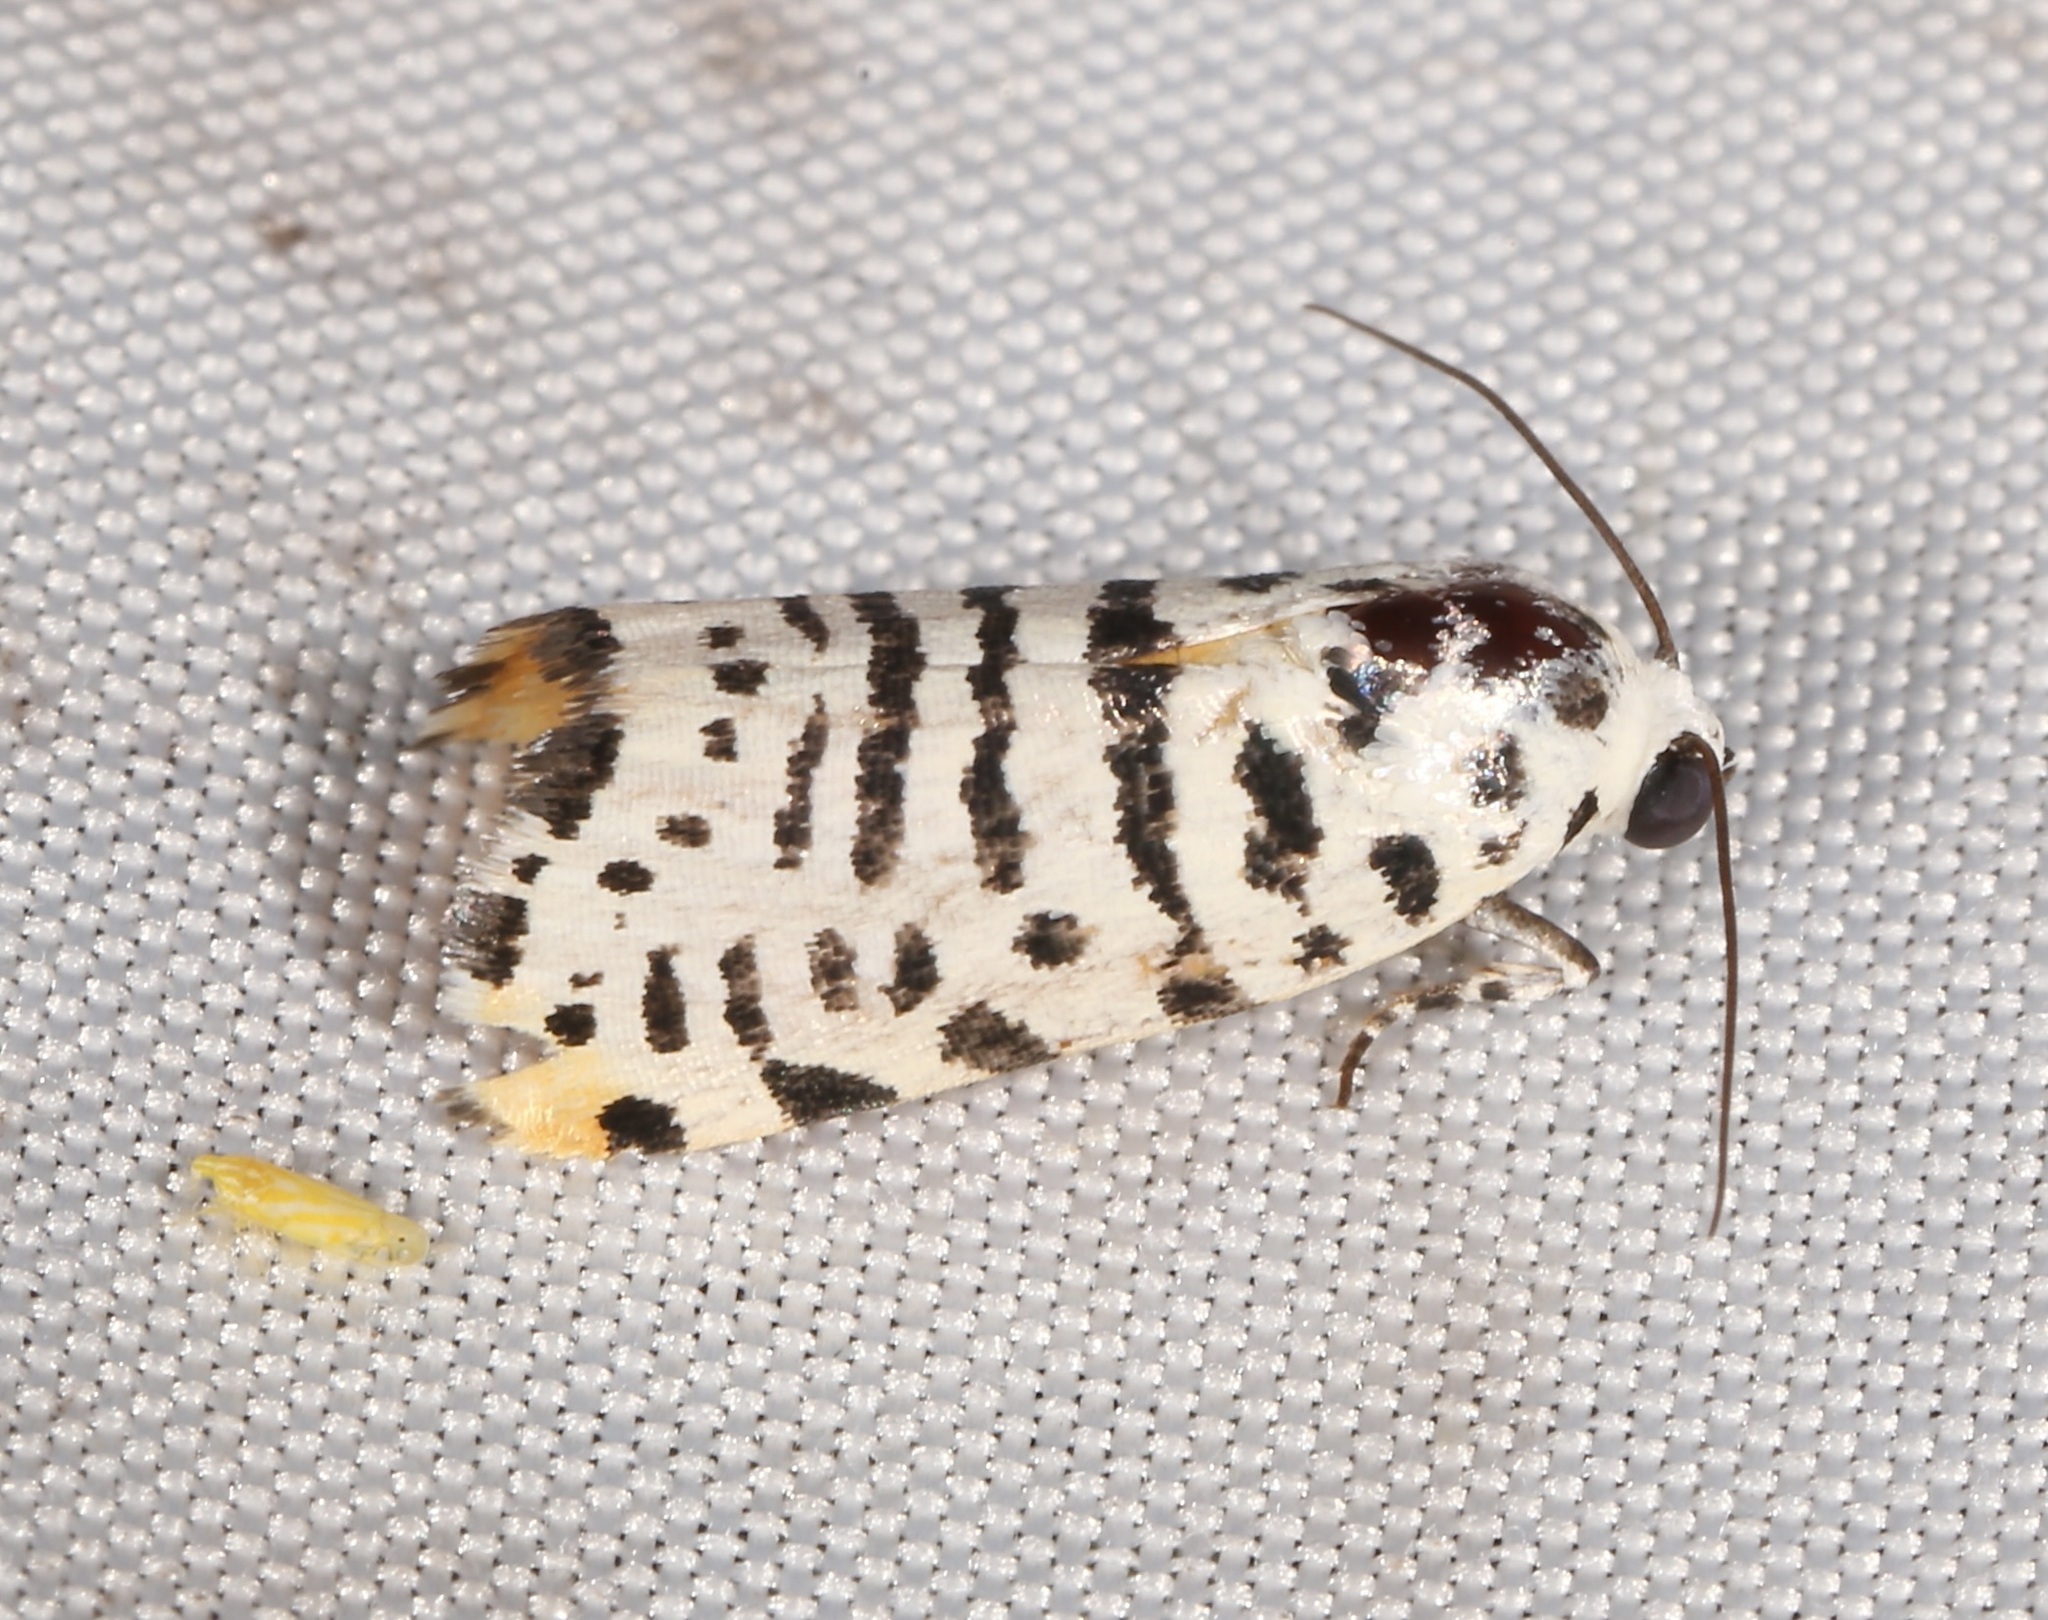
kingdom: Animalia
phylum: Arthropoda
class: Insecta
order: Lepidoptera
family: Noctuidae
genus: Acontia
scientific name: Acontia idella
